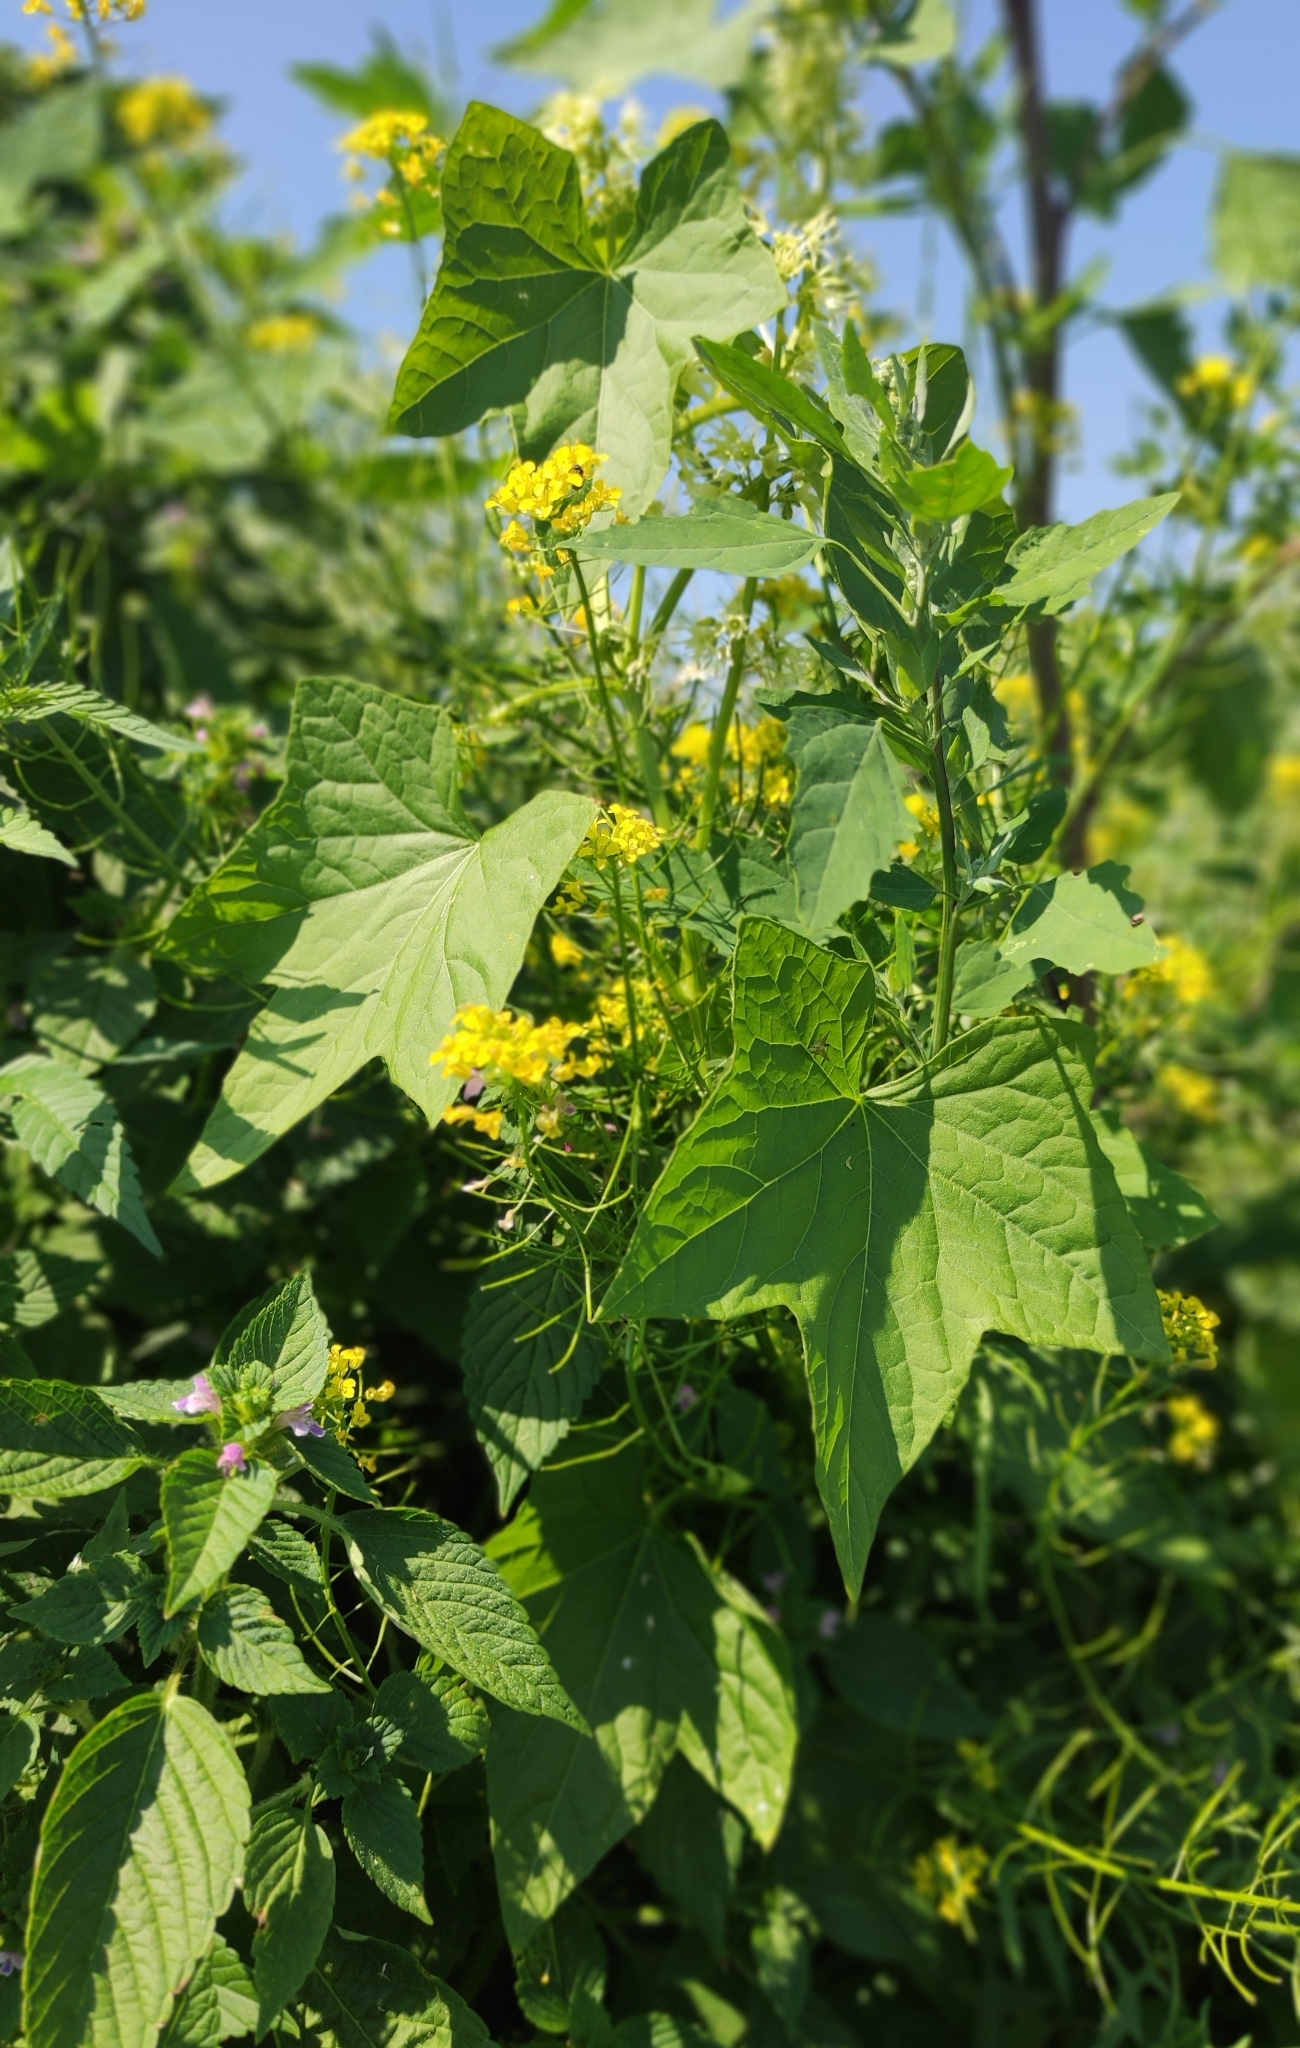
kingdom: Plantae
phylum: Tracheophyta
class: Magnoliopsida
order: Cucurbitales
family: Cucurbitaceae
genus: Echinocystis
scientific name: Echinocystis lobata
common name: Wild cucumber
